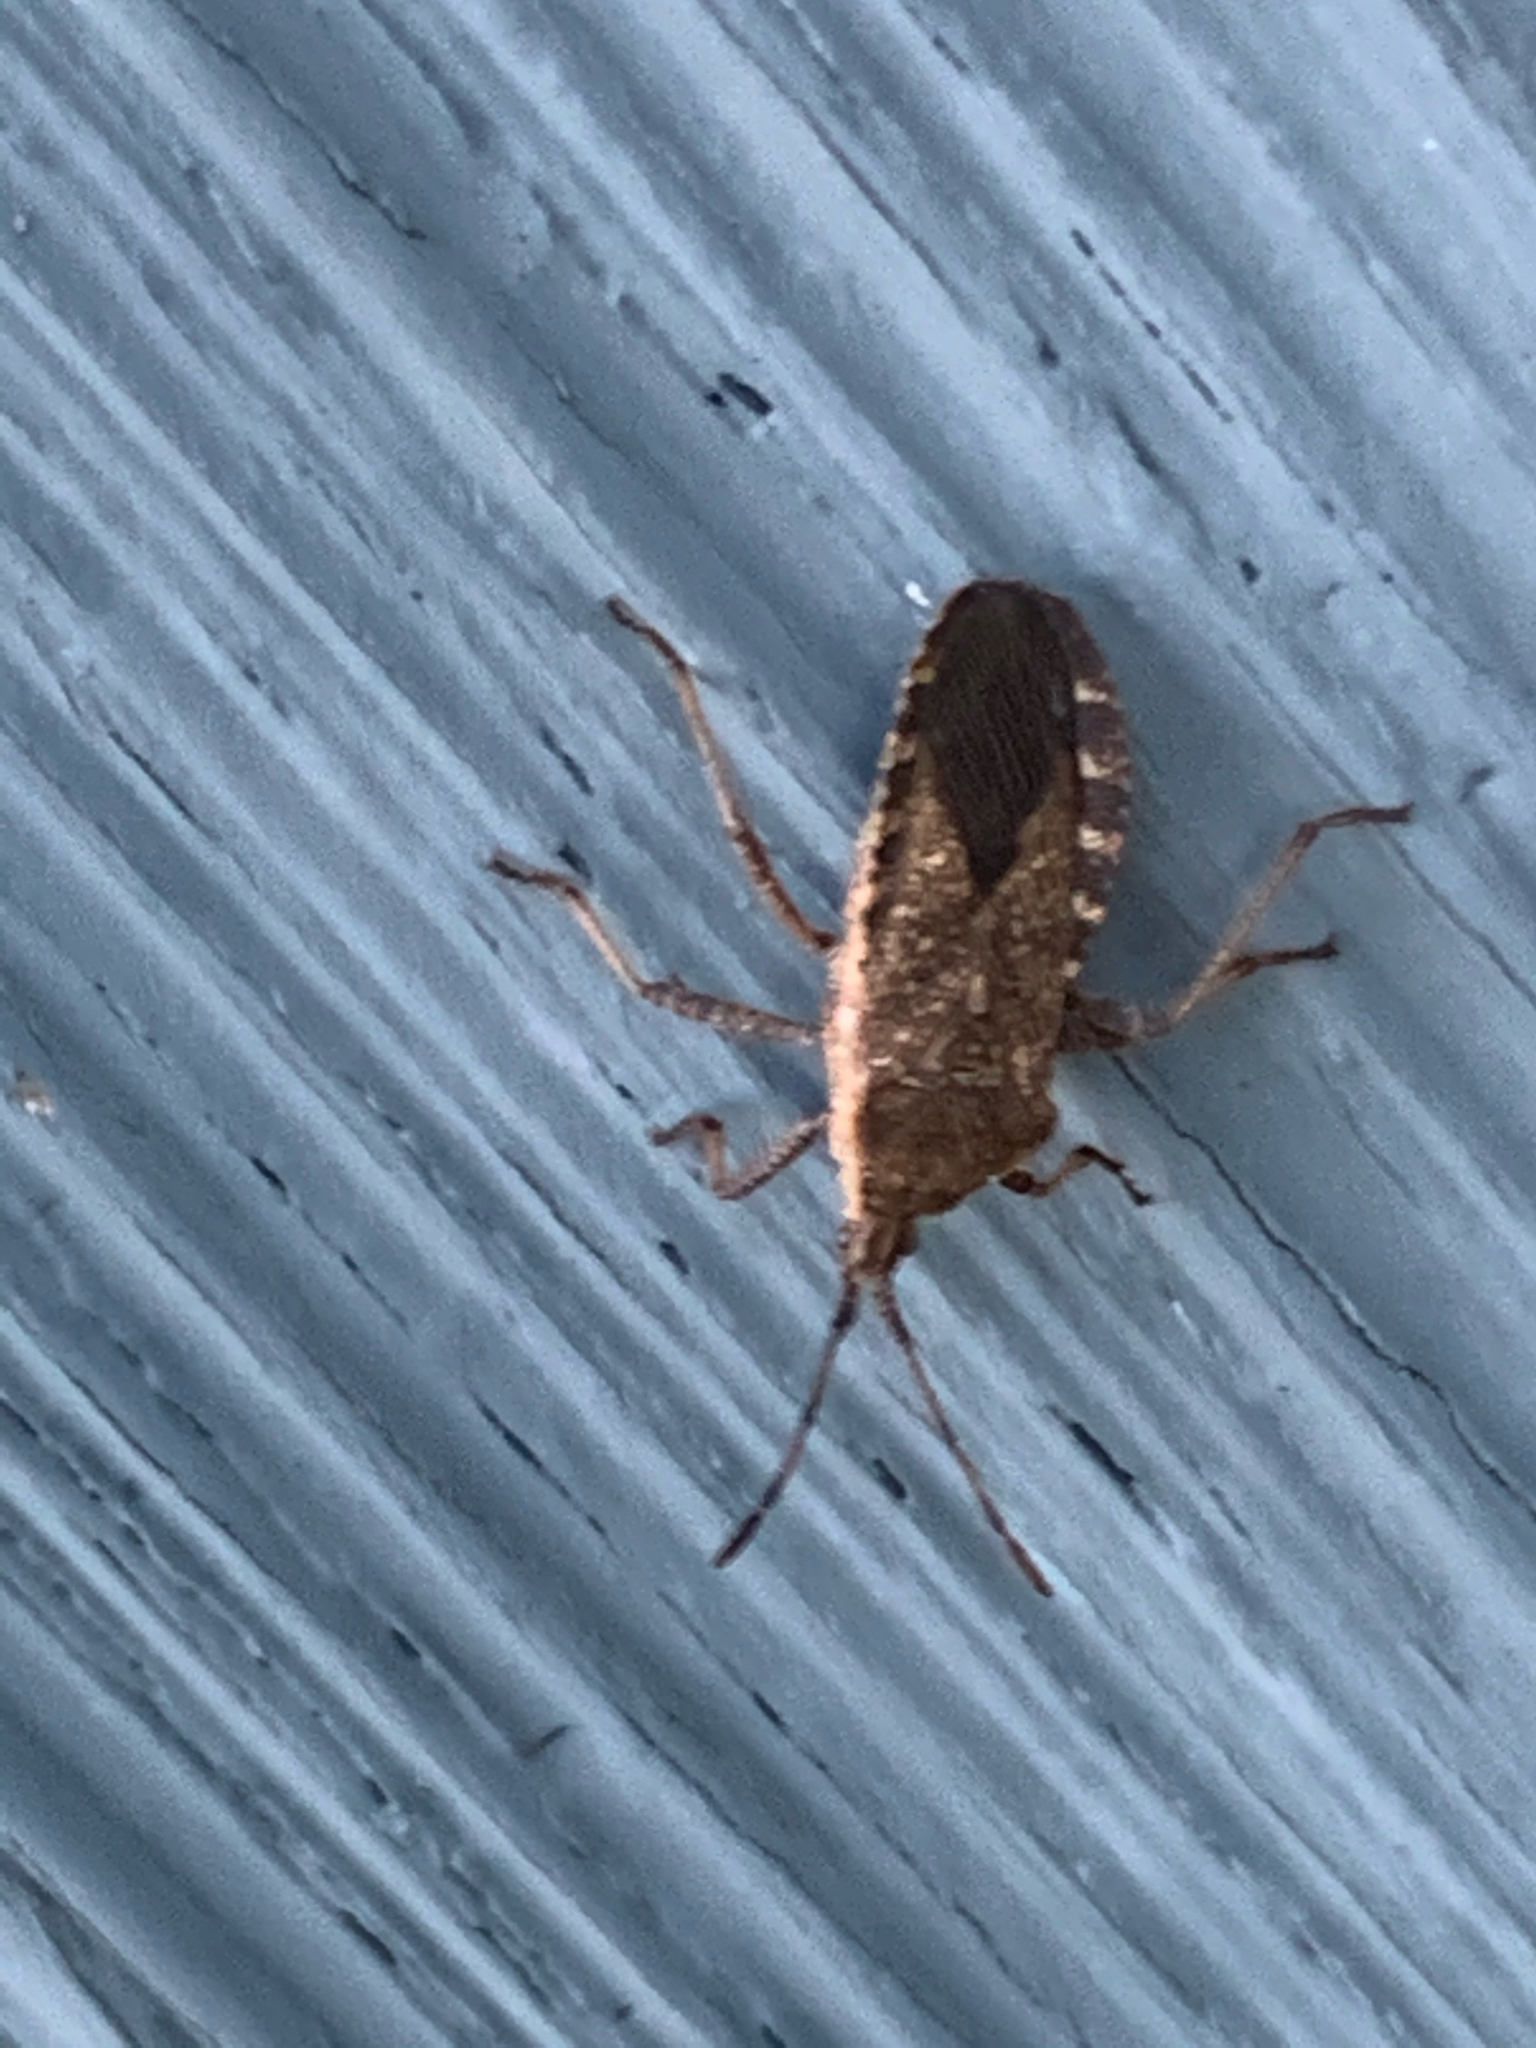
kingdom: Animalia
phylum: Arthropoda
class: Insecta
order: Hemiptera
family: Coreidae
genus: Anasa
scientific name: Anasa tristis
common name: Squash bug
